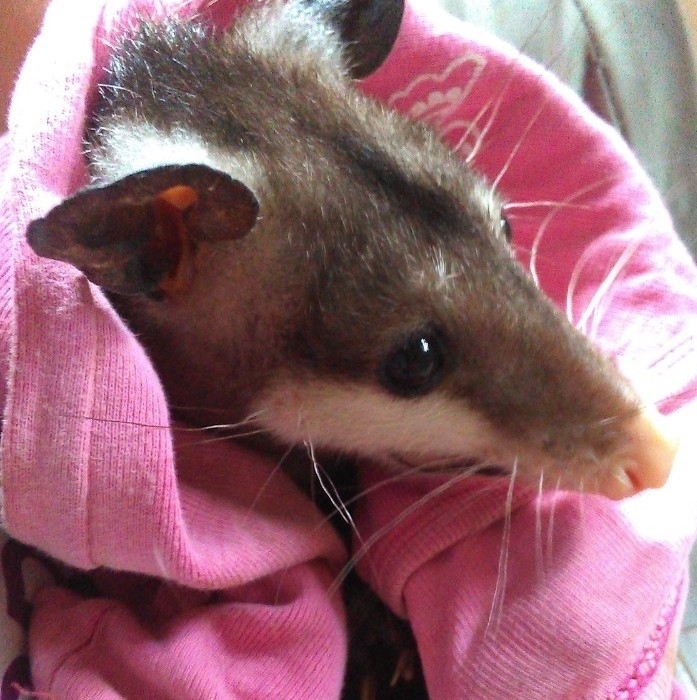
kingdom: Animalia
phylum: Chordata
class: Mammalia
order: Didelphimorphia
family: Didelphidae
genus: Didelphis
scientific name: Didelphis virginiana
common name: Virginia opossum
